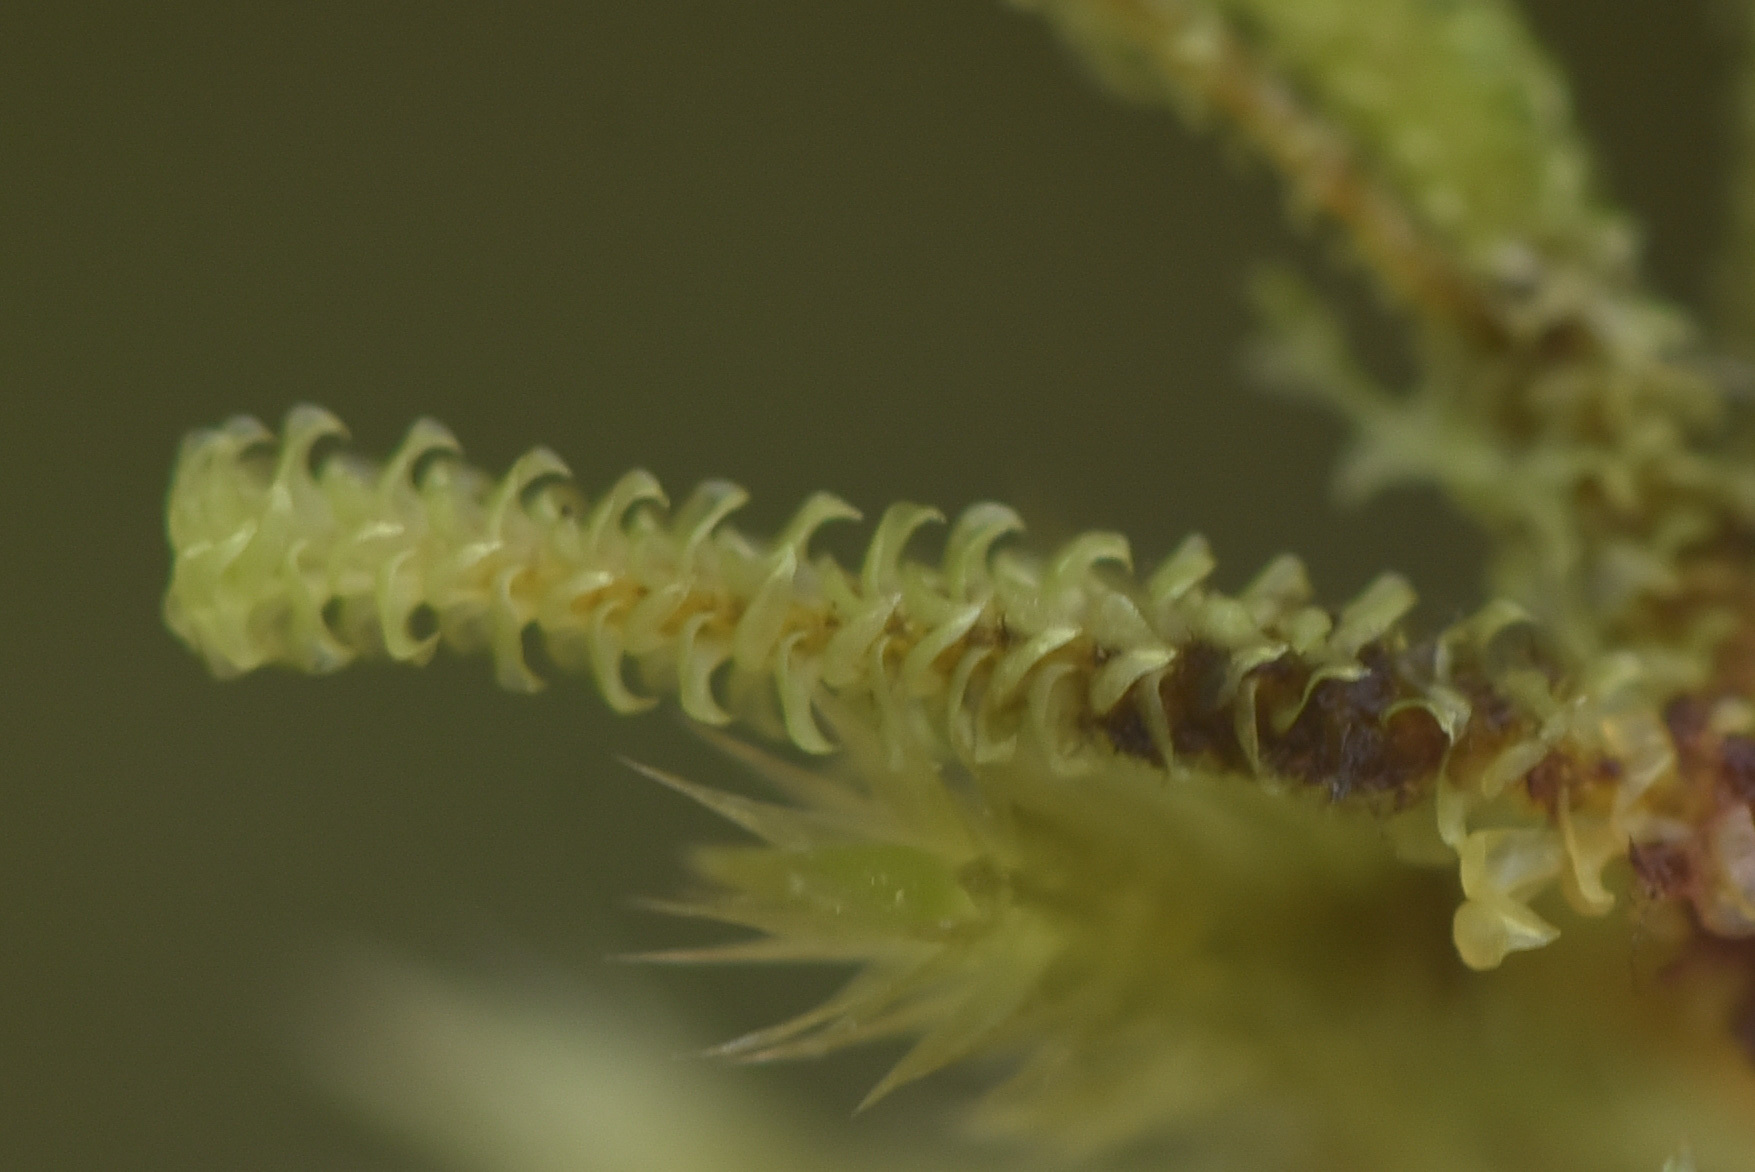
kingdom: Plantae
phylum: Bryophyta
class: Bryopsida
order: Splachnales
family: Meesiaceae
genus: Paludella
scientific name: Paludella squarrosa
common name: Tufted fen moss
